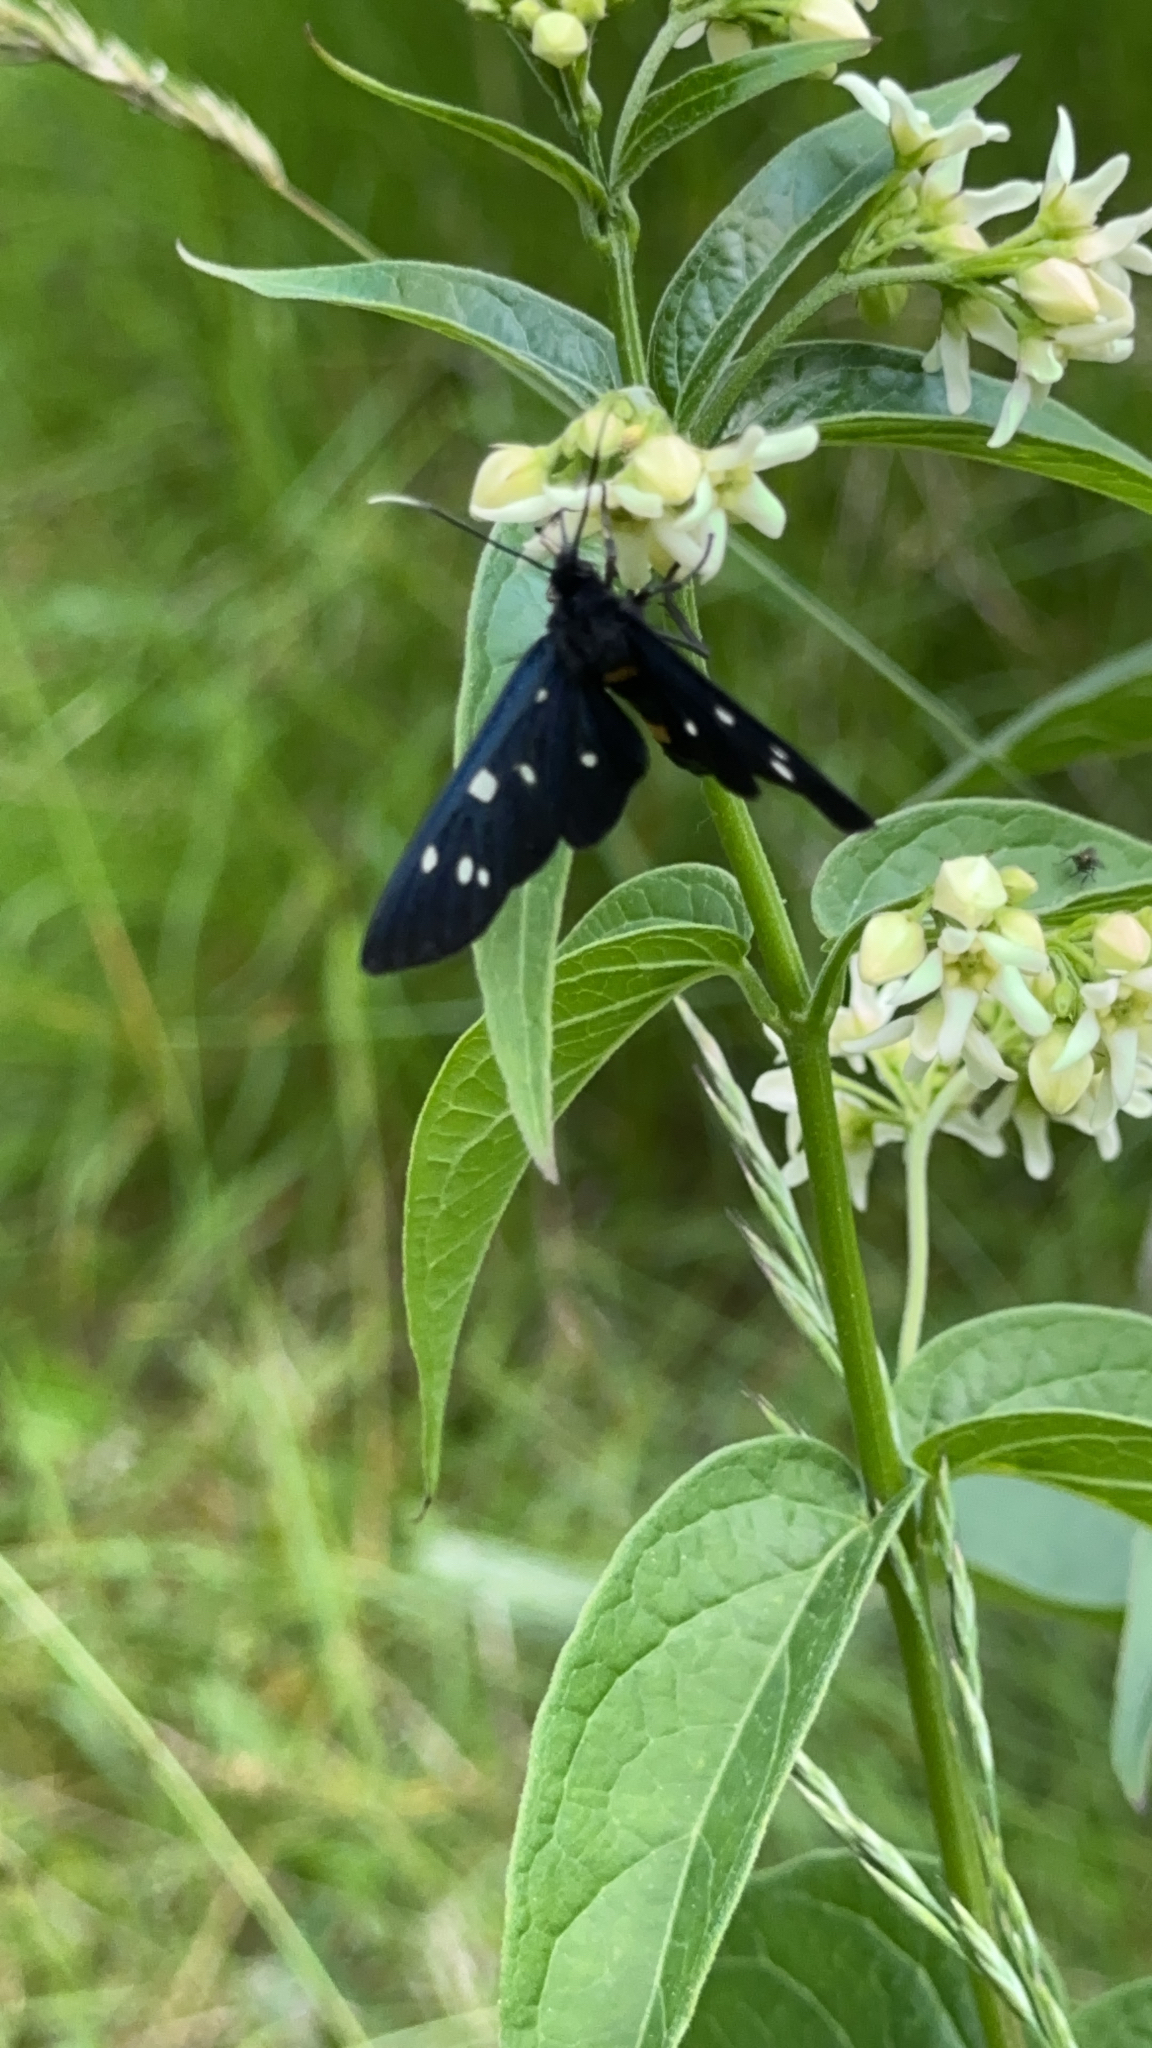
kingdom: Animalia
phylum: Arthropoda
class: Insecta
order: Lepidoptera
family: Erebidae
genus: Amata
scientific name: Amata phegea
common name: Nine-spotted
